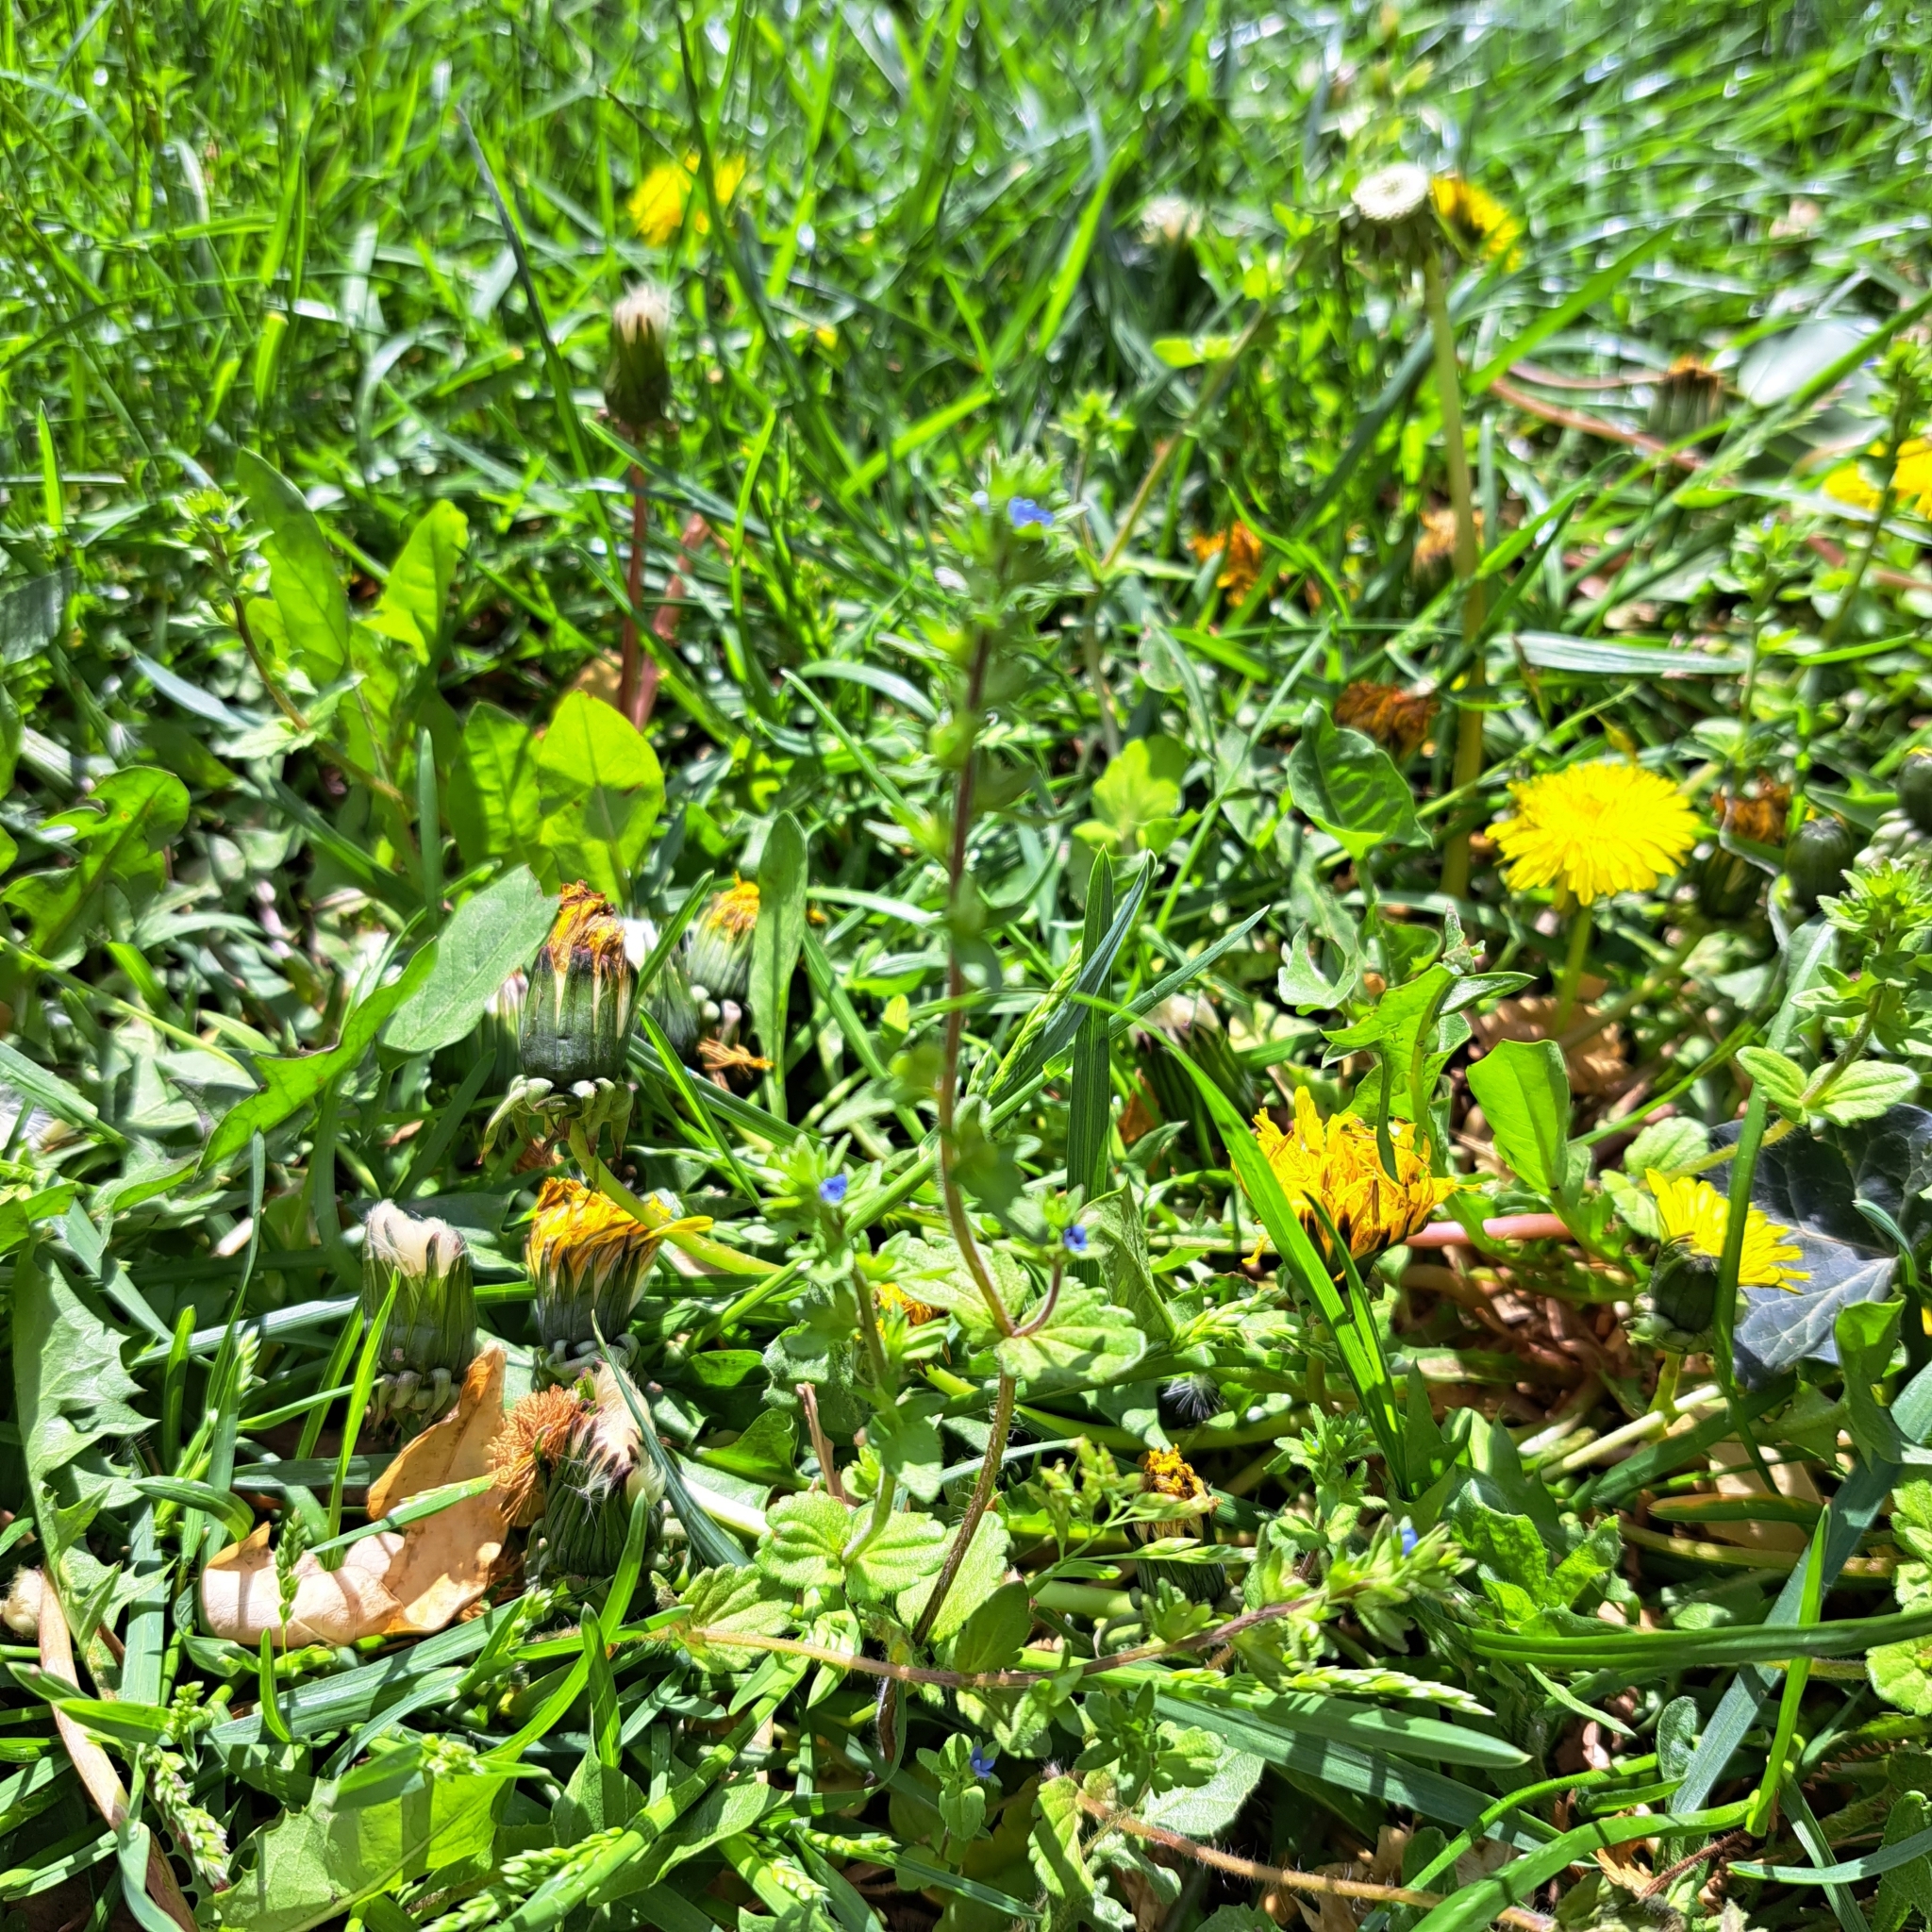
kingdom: Plantae
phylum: Tracheophyta
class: Magnoliopsida
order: Lamiales
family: Plantaginaceae
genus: Veronica
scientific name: Veronica arvensis
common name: Corn speedwell
